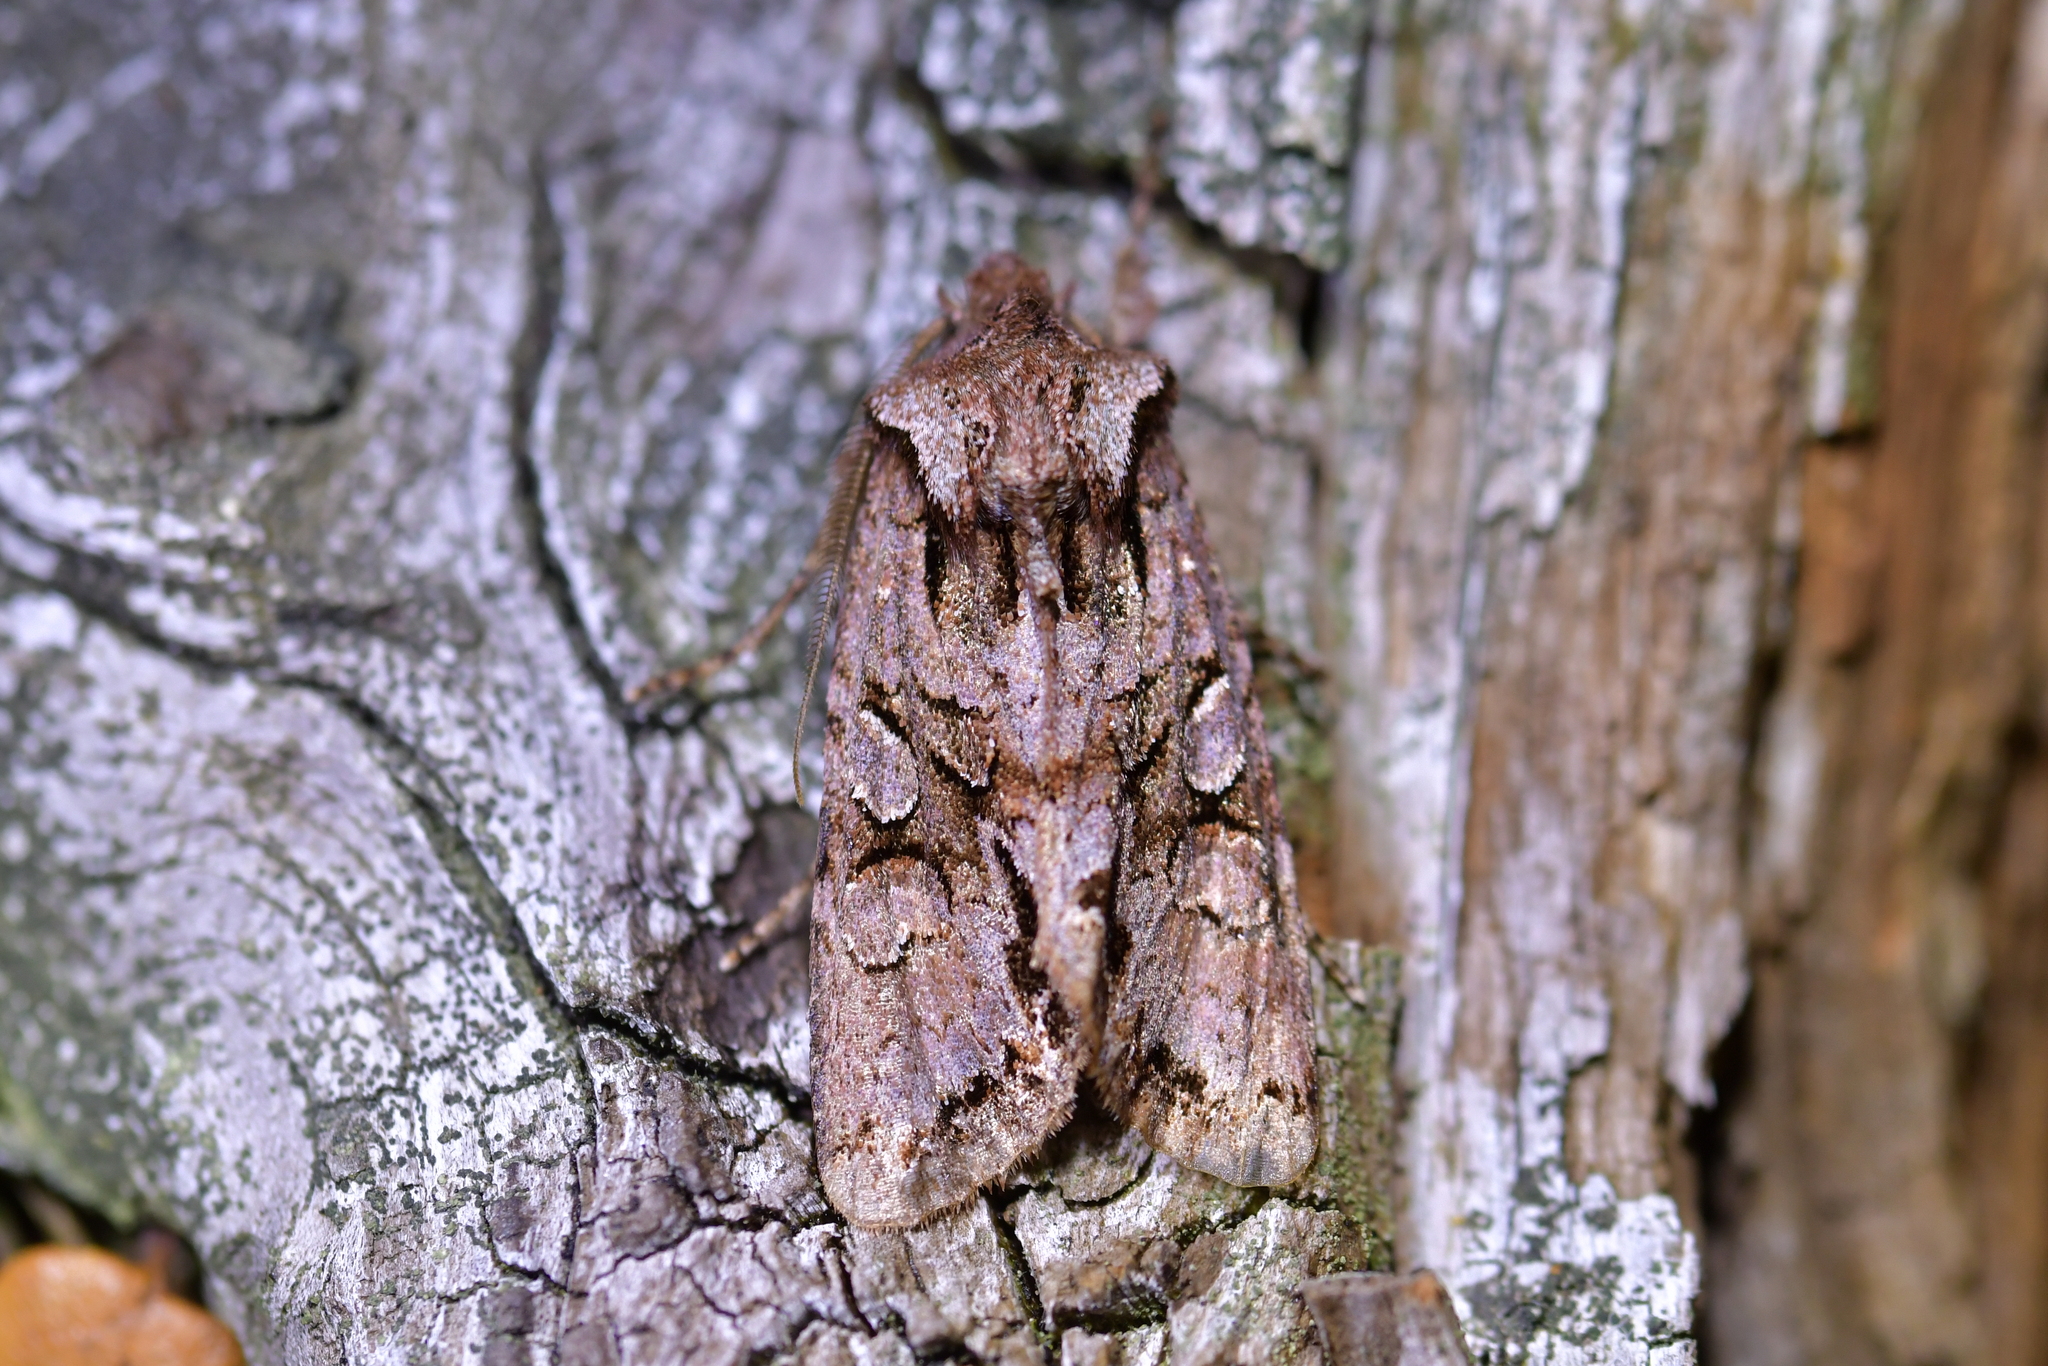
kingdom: Animalia
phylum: Arthropoda
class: Insecta
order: Lepidoptera
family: Noctuidae
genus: Ichneutica
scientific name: Ichneutica skelloni
